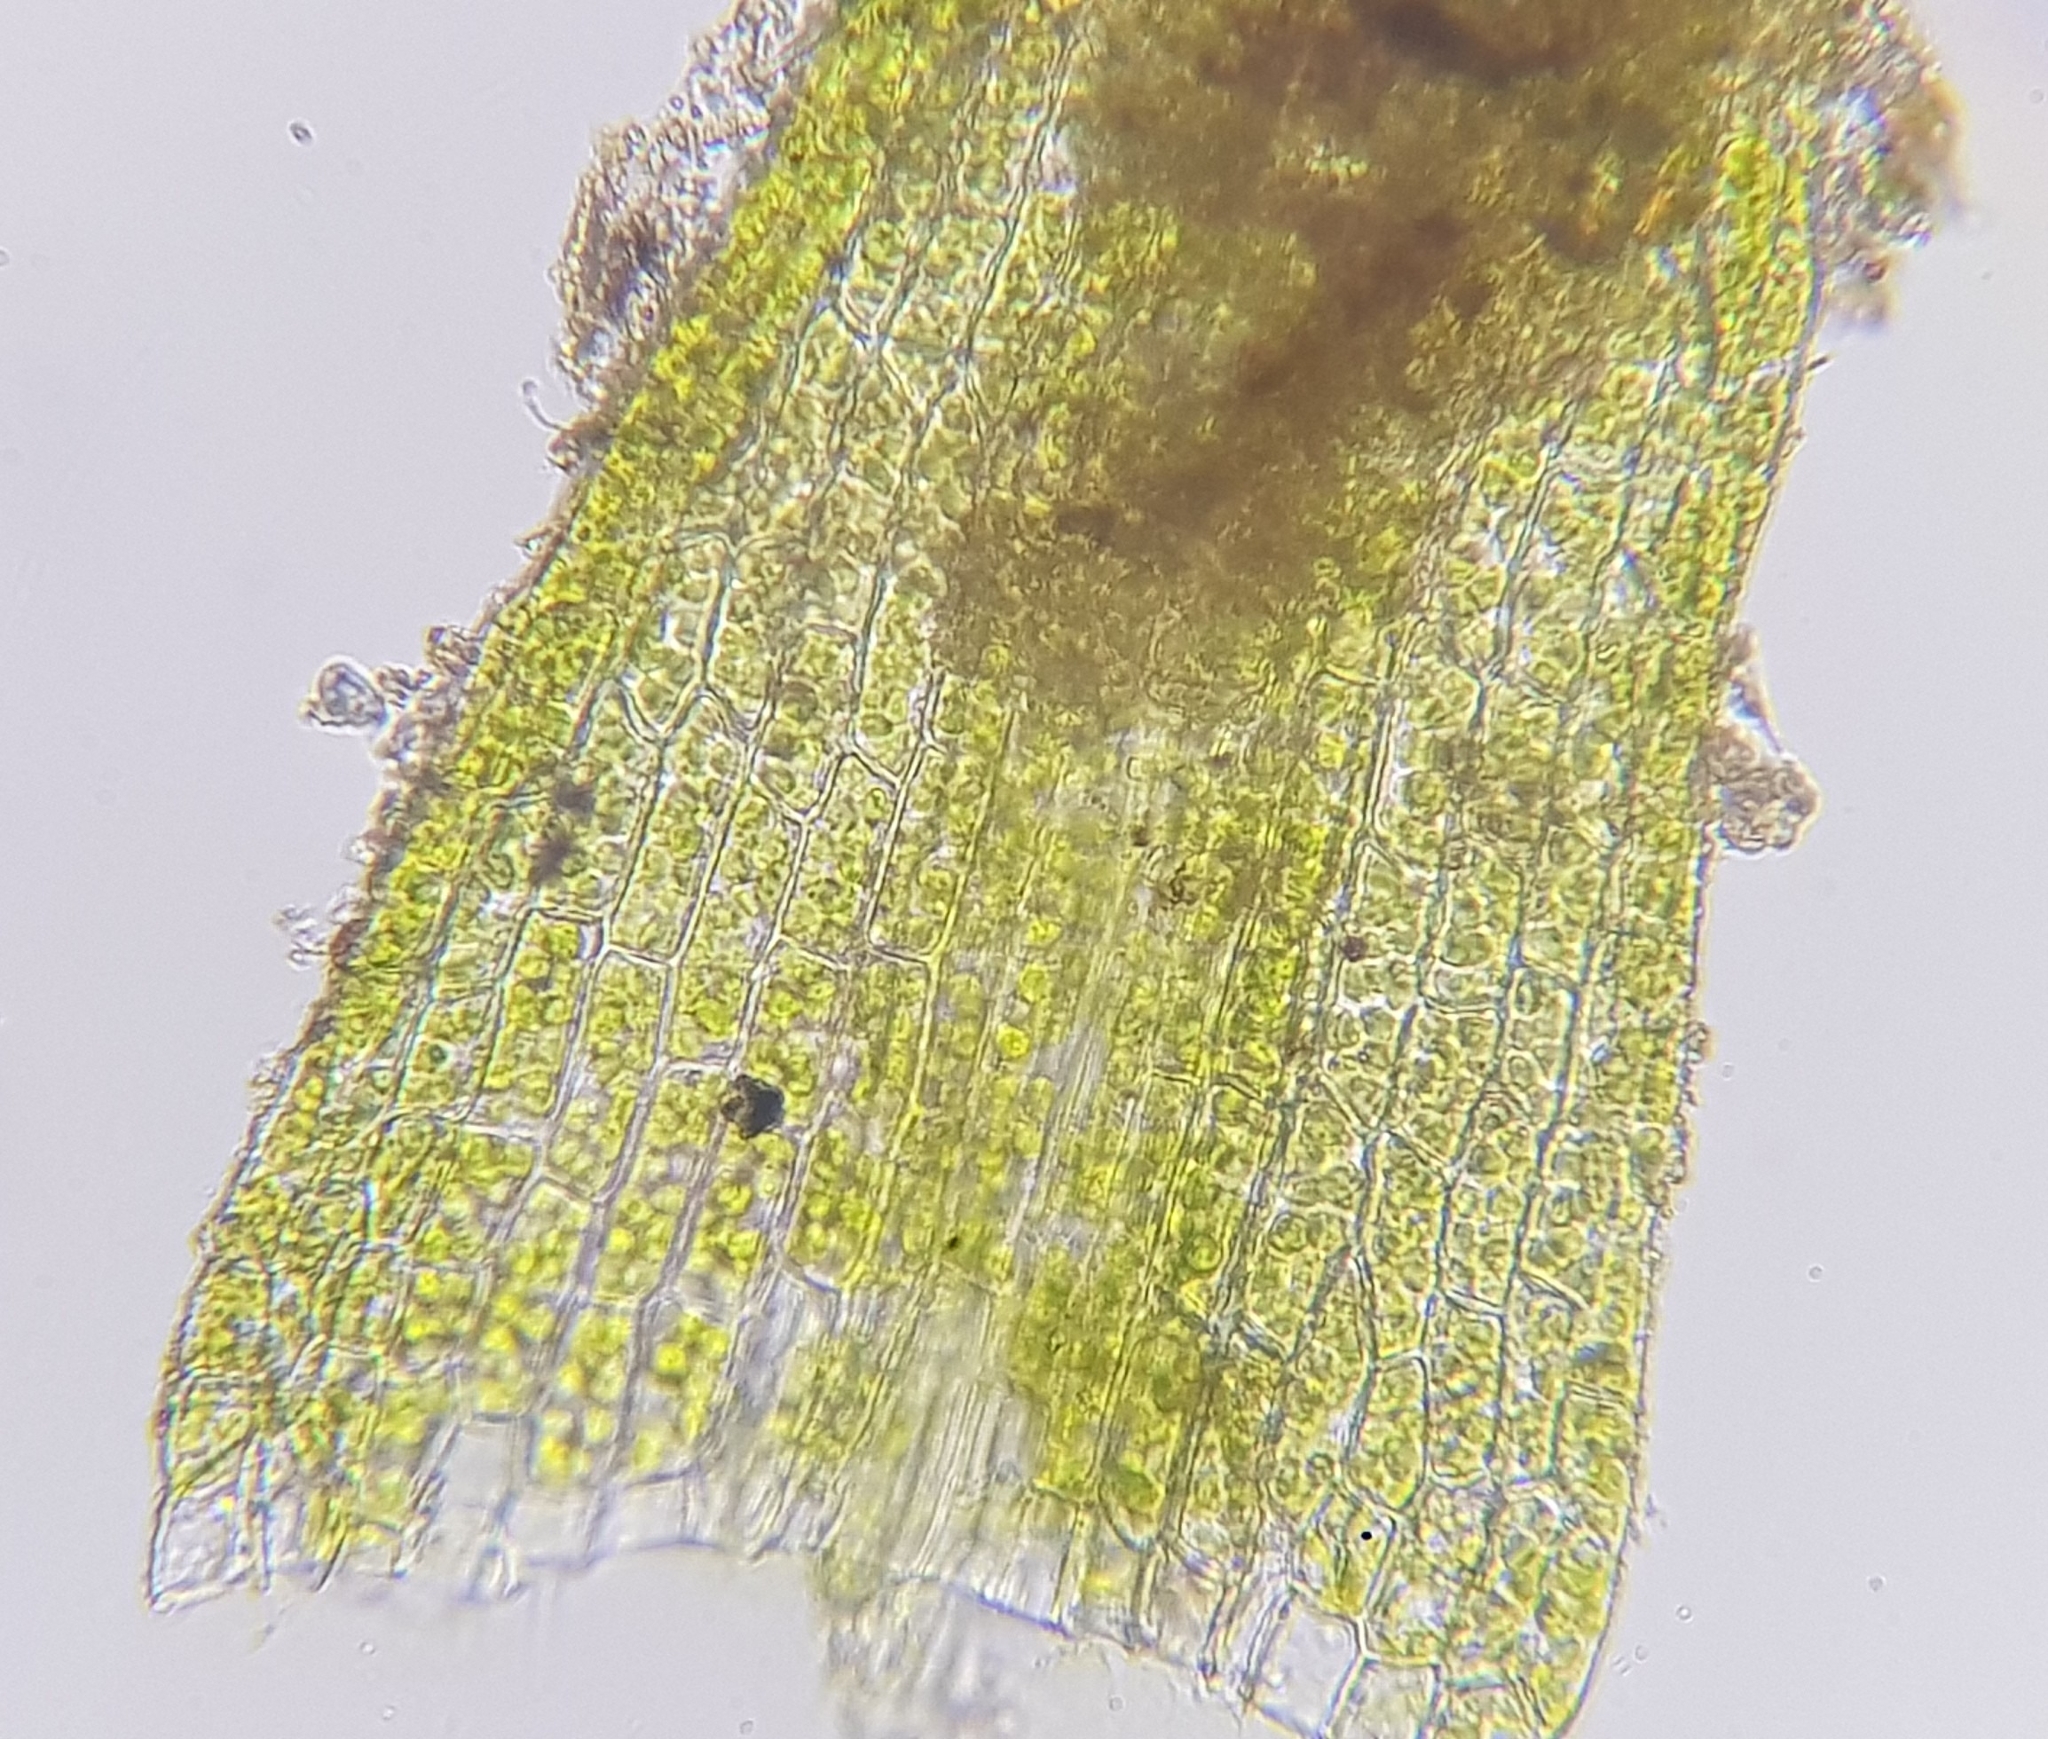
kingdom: Plantae
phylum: Bryophyta
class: Bryopsida
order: Dicranales
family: Dicranellaceae
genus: Dicranella
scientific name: Dicranella staphylina
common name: Field forklet moss
